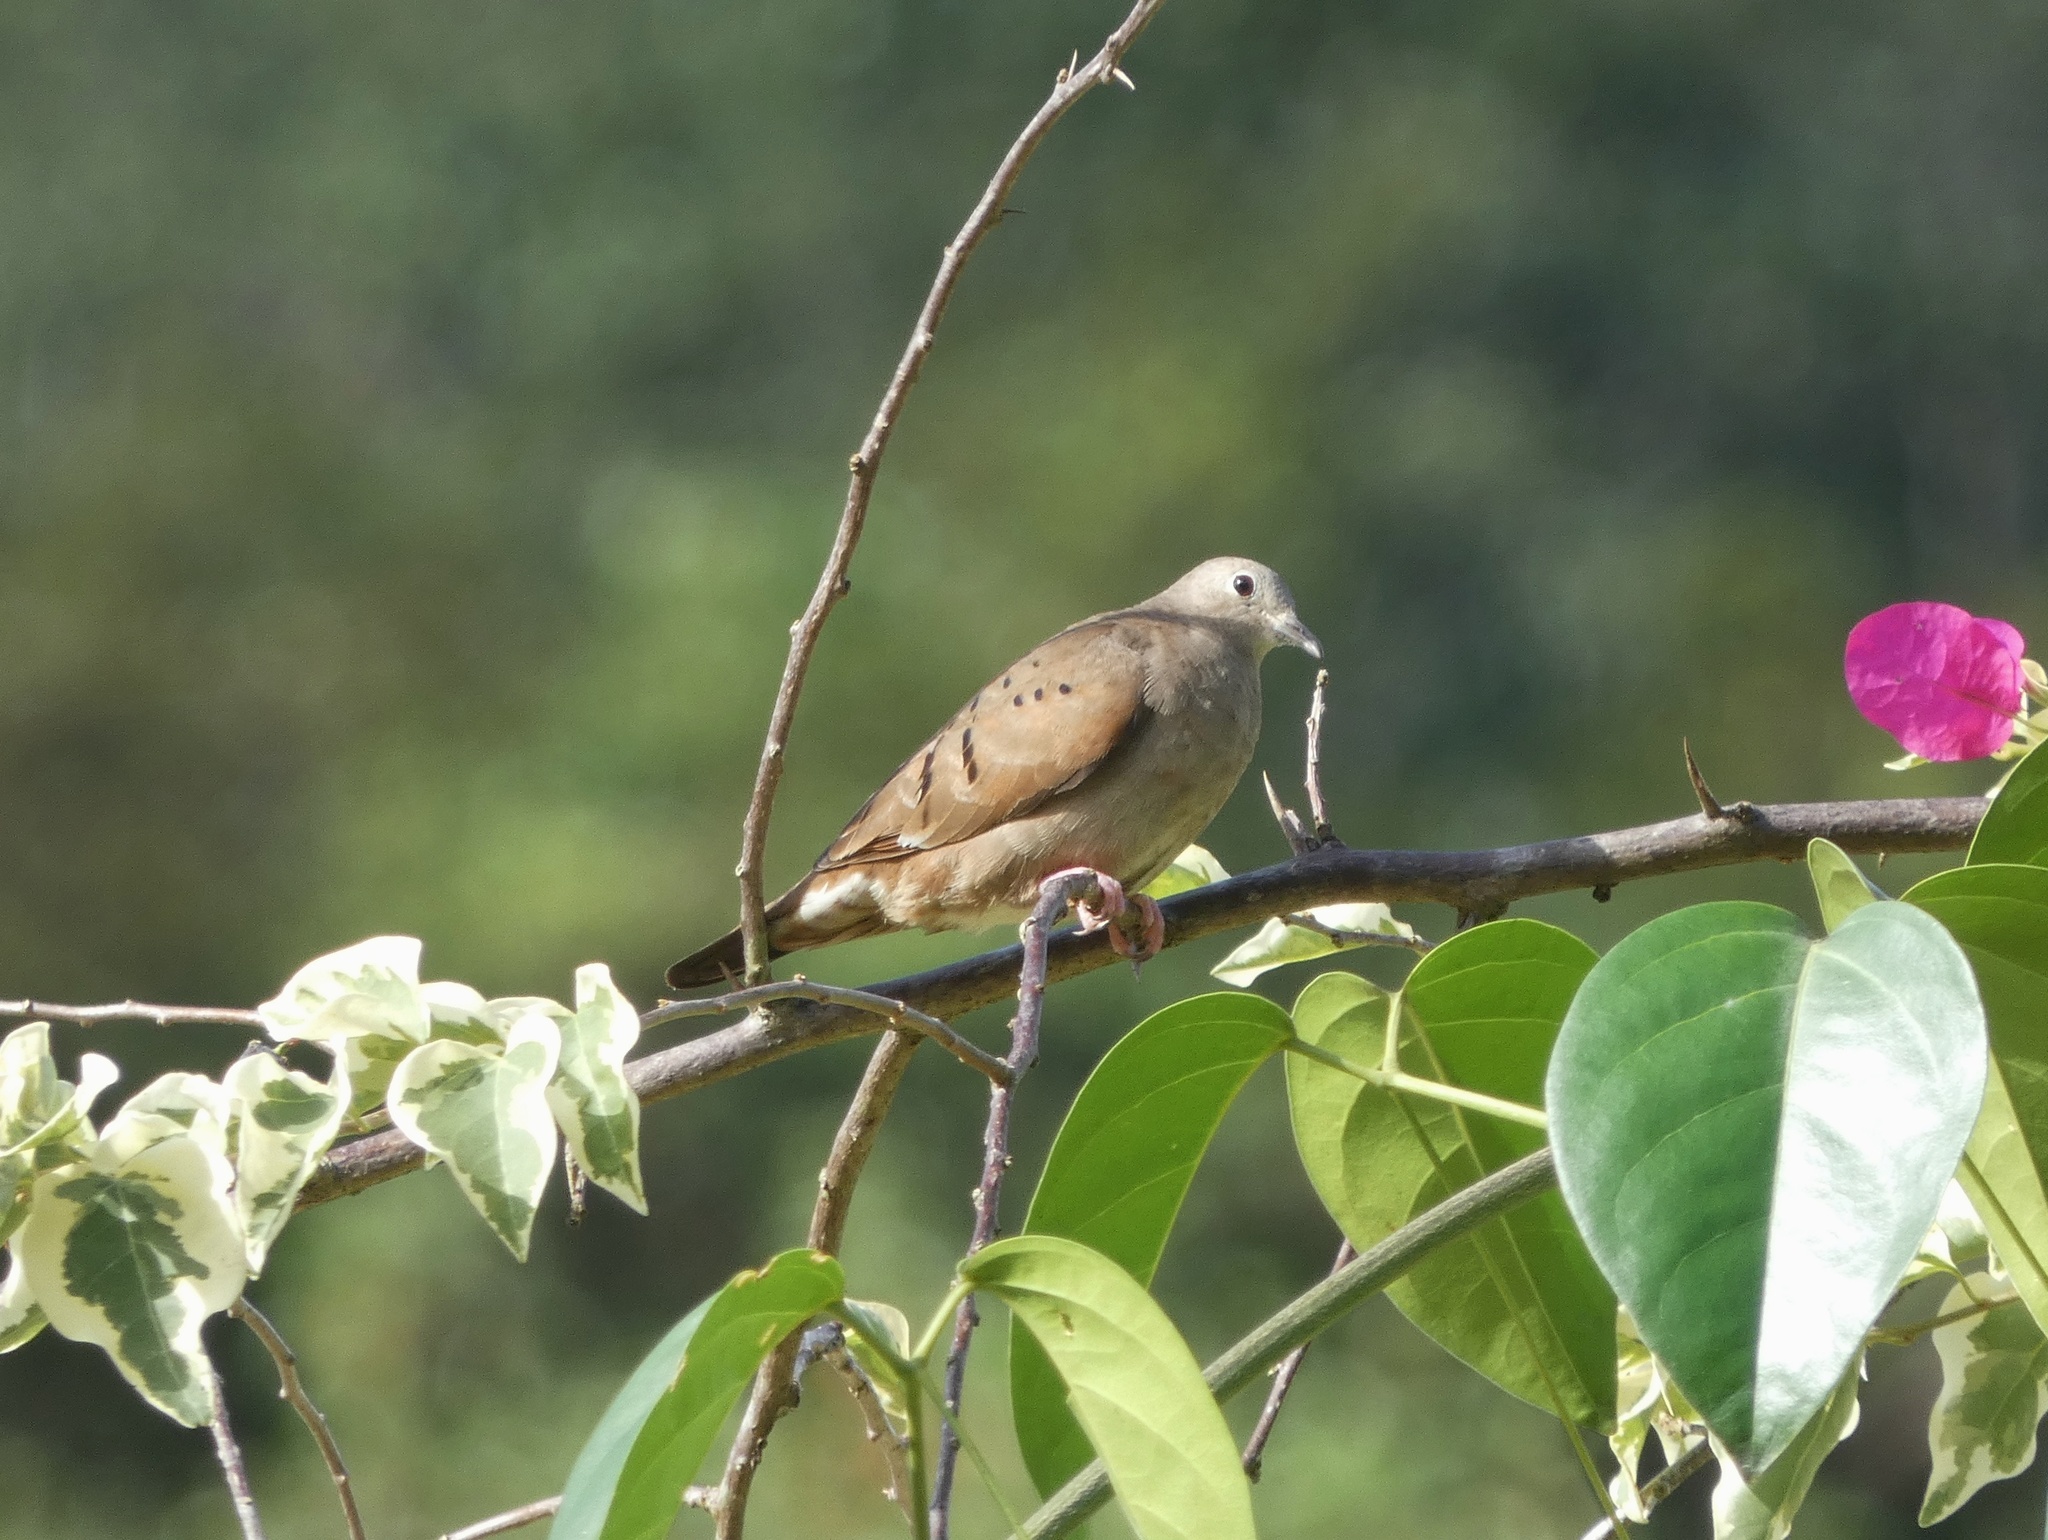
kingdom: Animalia
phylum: Chordata
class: Aves
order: Columbiformes
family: Columbidae
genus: Columbina
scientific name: Columbina talpacoti
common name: Ruddy ground dove
